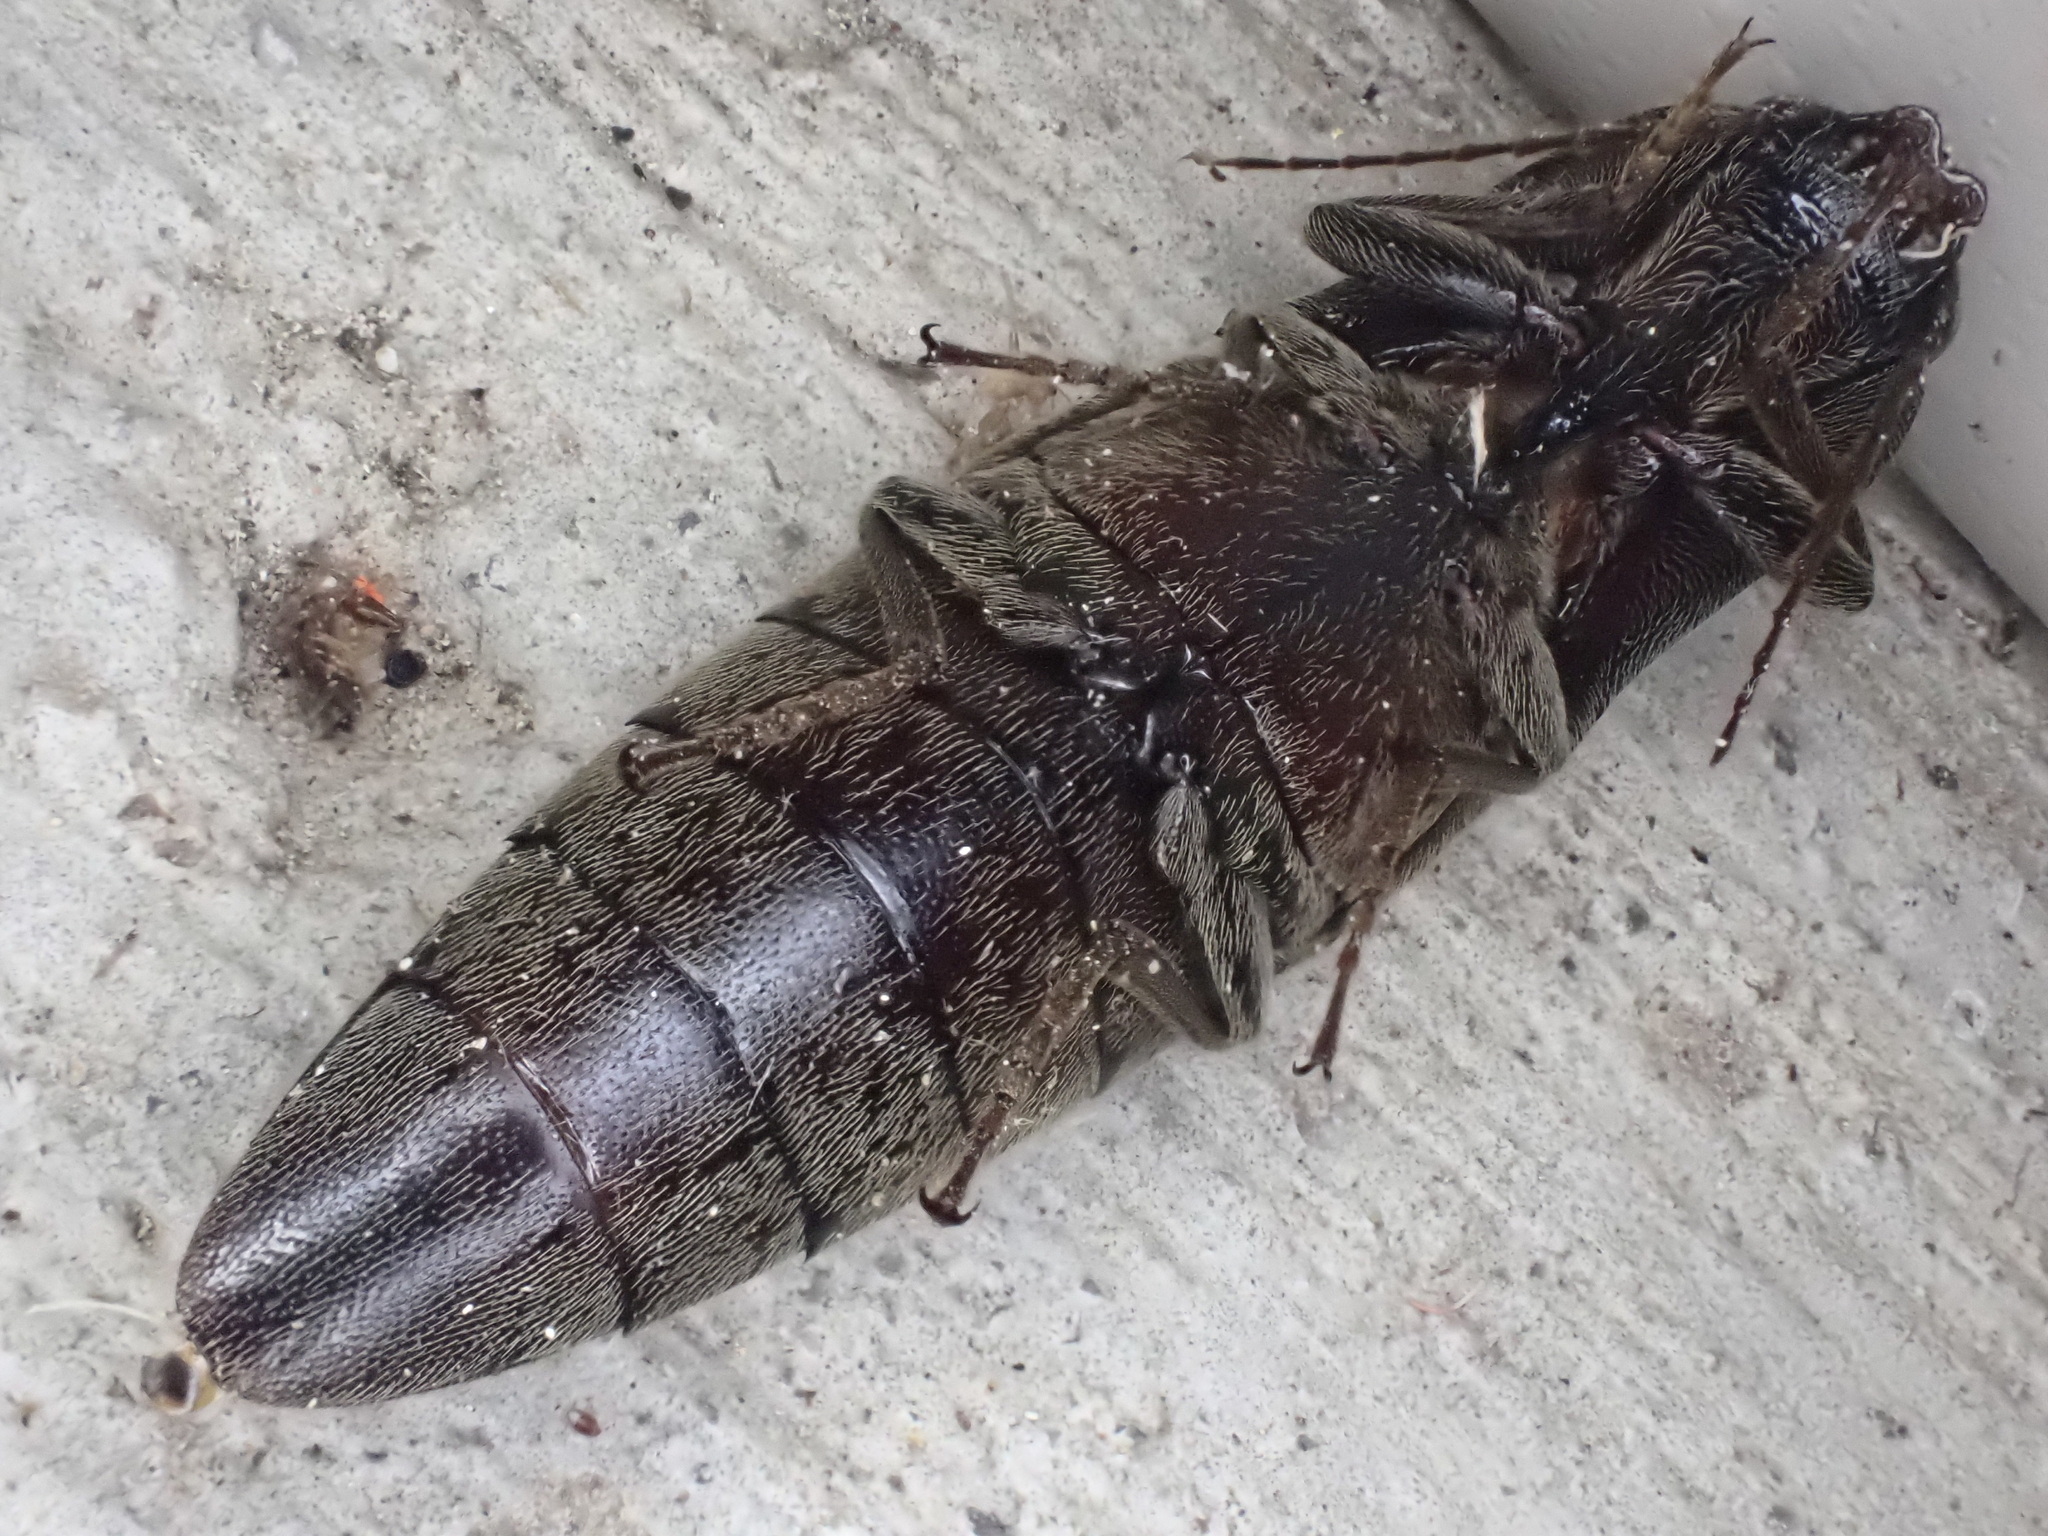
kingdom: Animalia
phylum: Arthropoda
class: Insecta
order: Coleoptera
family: Elateridae
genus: Orthostethus
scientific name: Orthostethus infuscatus
